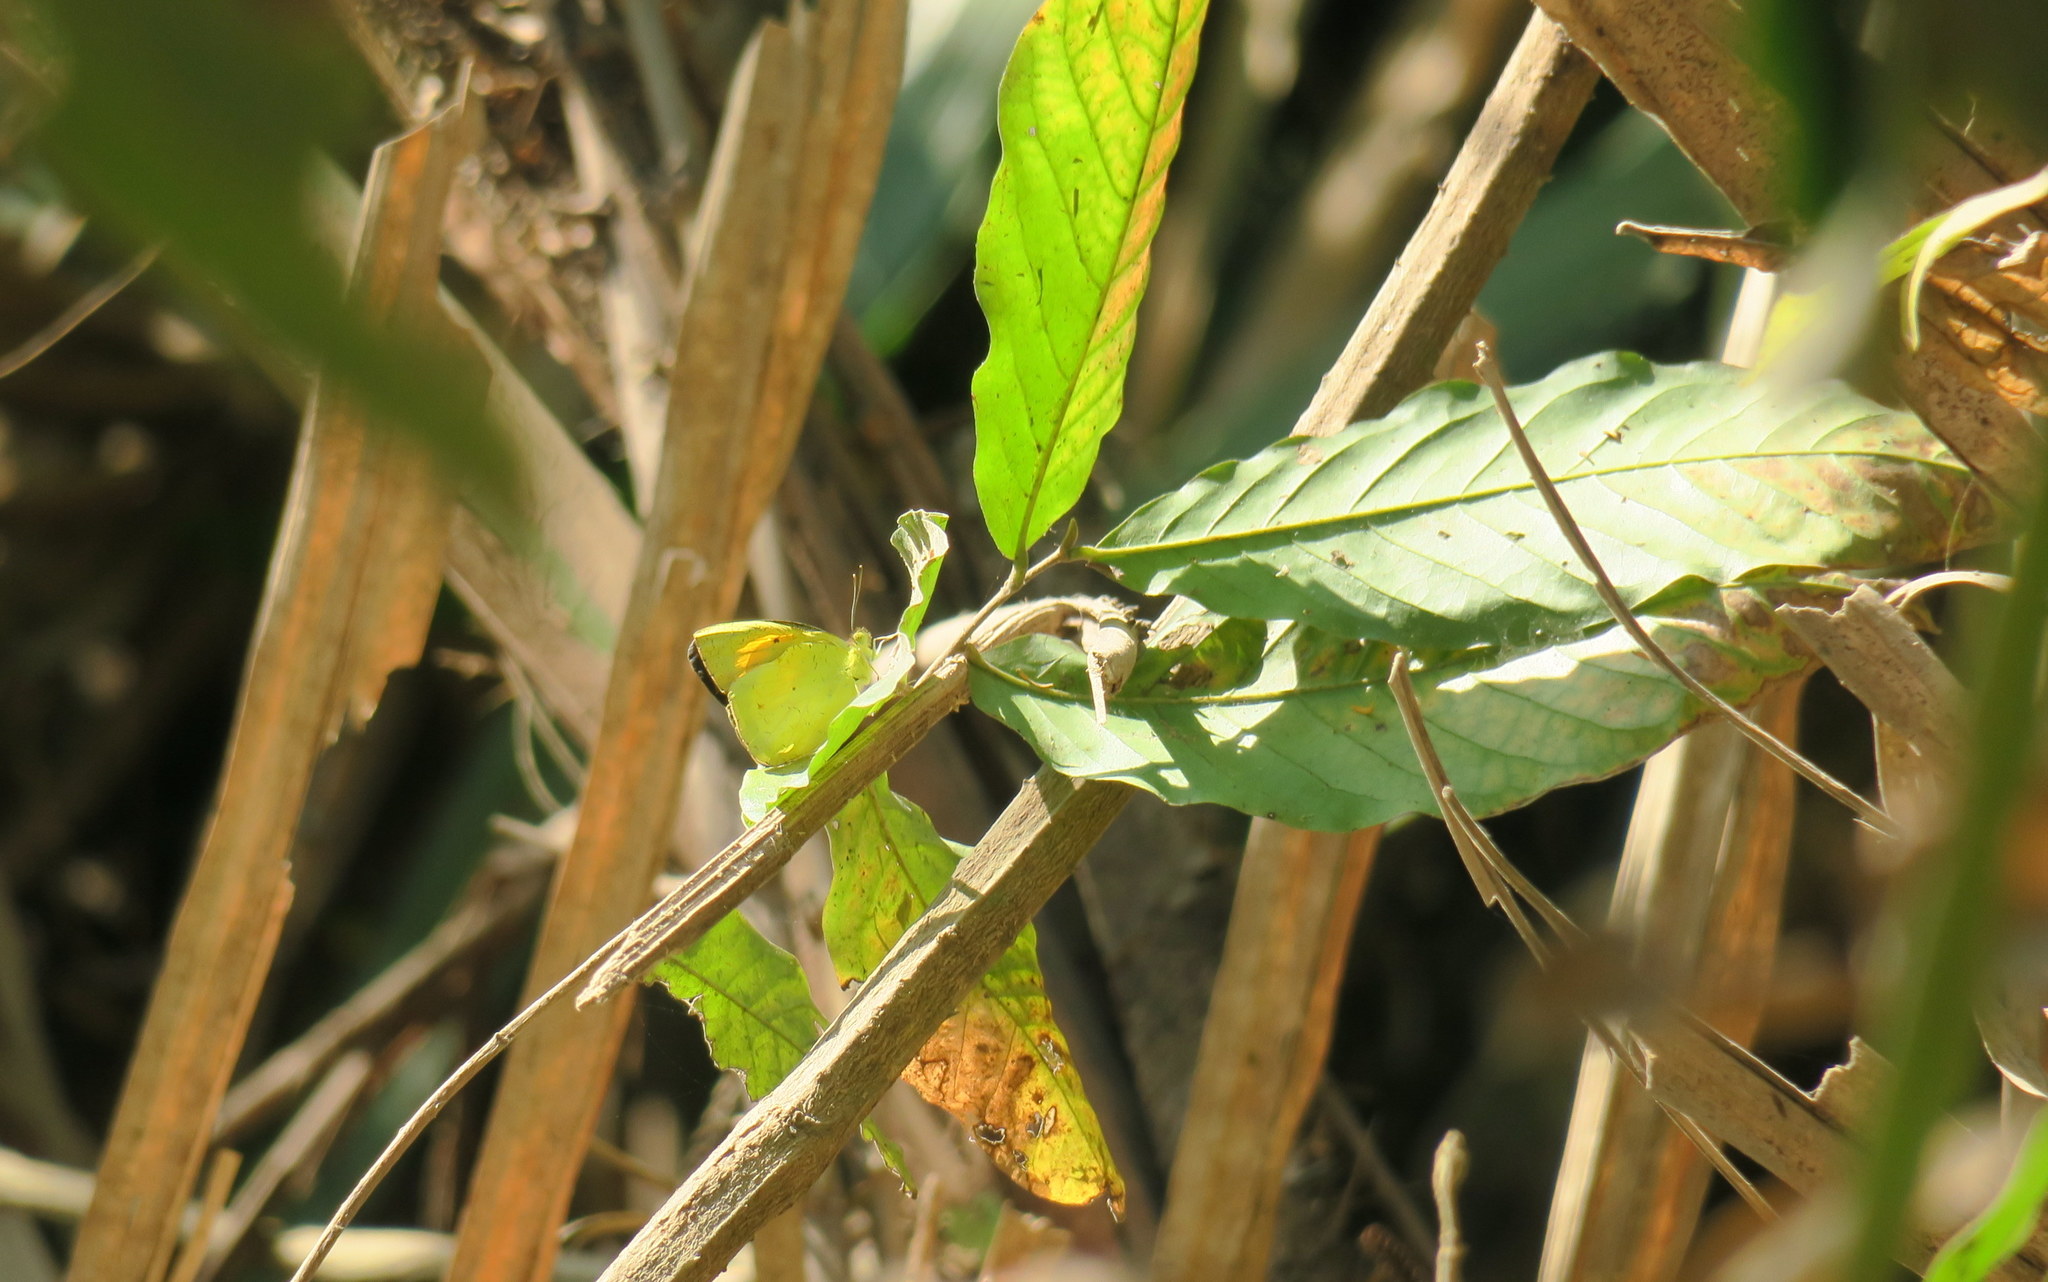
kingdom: Animalia
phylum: Arthropoda
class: Insecta
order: Lepidoptera
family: Pieridae
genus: Ixias
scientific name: Ixias pyrene
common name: Yellow orange tip
